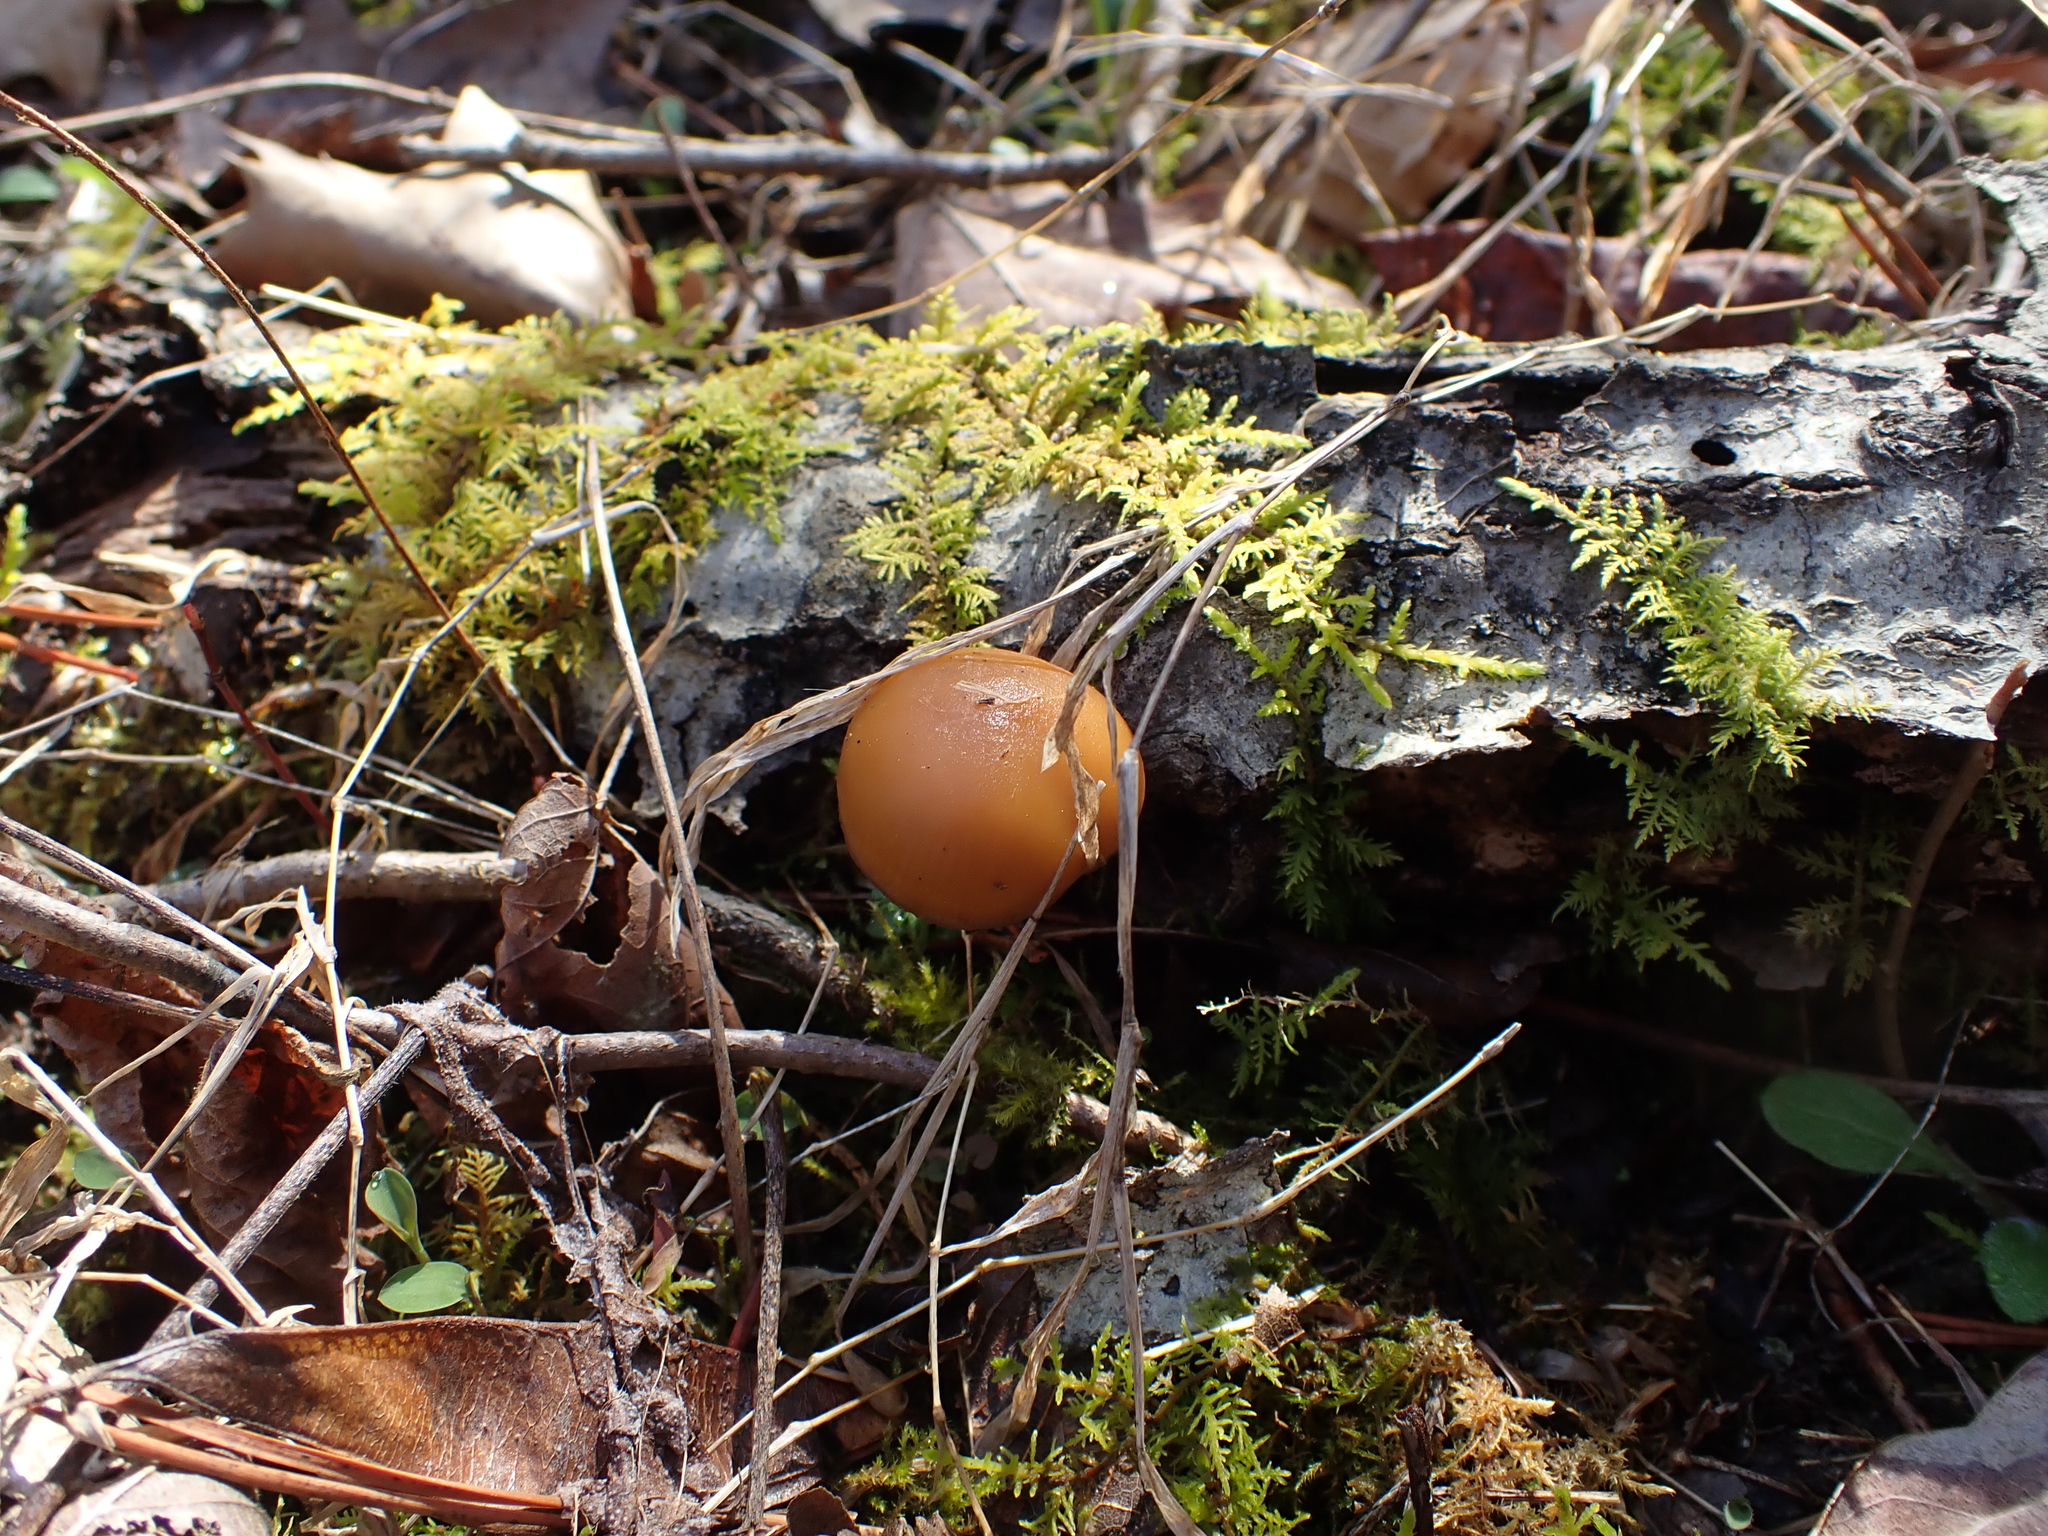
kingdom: Fungi
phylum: Basidiomycota
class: Agaricomycetes
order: Agaricales
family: Hymenogastraceae
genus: Galerina
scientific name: Galerina marginata
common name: Funeral bell
